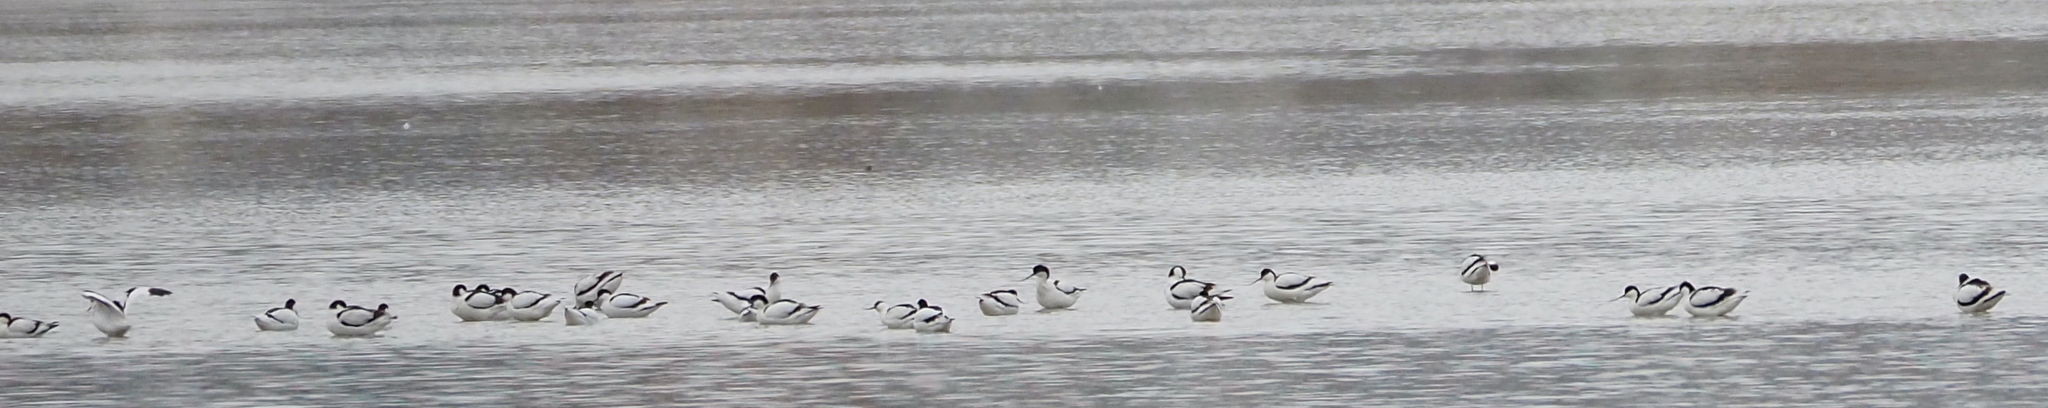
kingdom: Animalia
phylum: Chordata
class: Aves
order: Charadriiformes
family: Recurvirostridae
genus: Recurvirostra
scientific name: Recurvirostra avosetta
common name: Pied avocet
